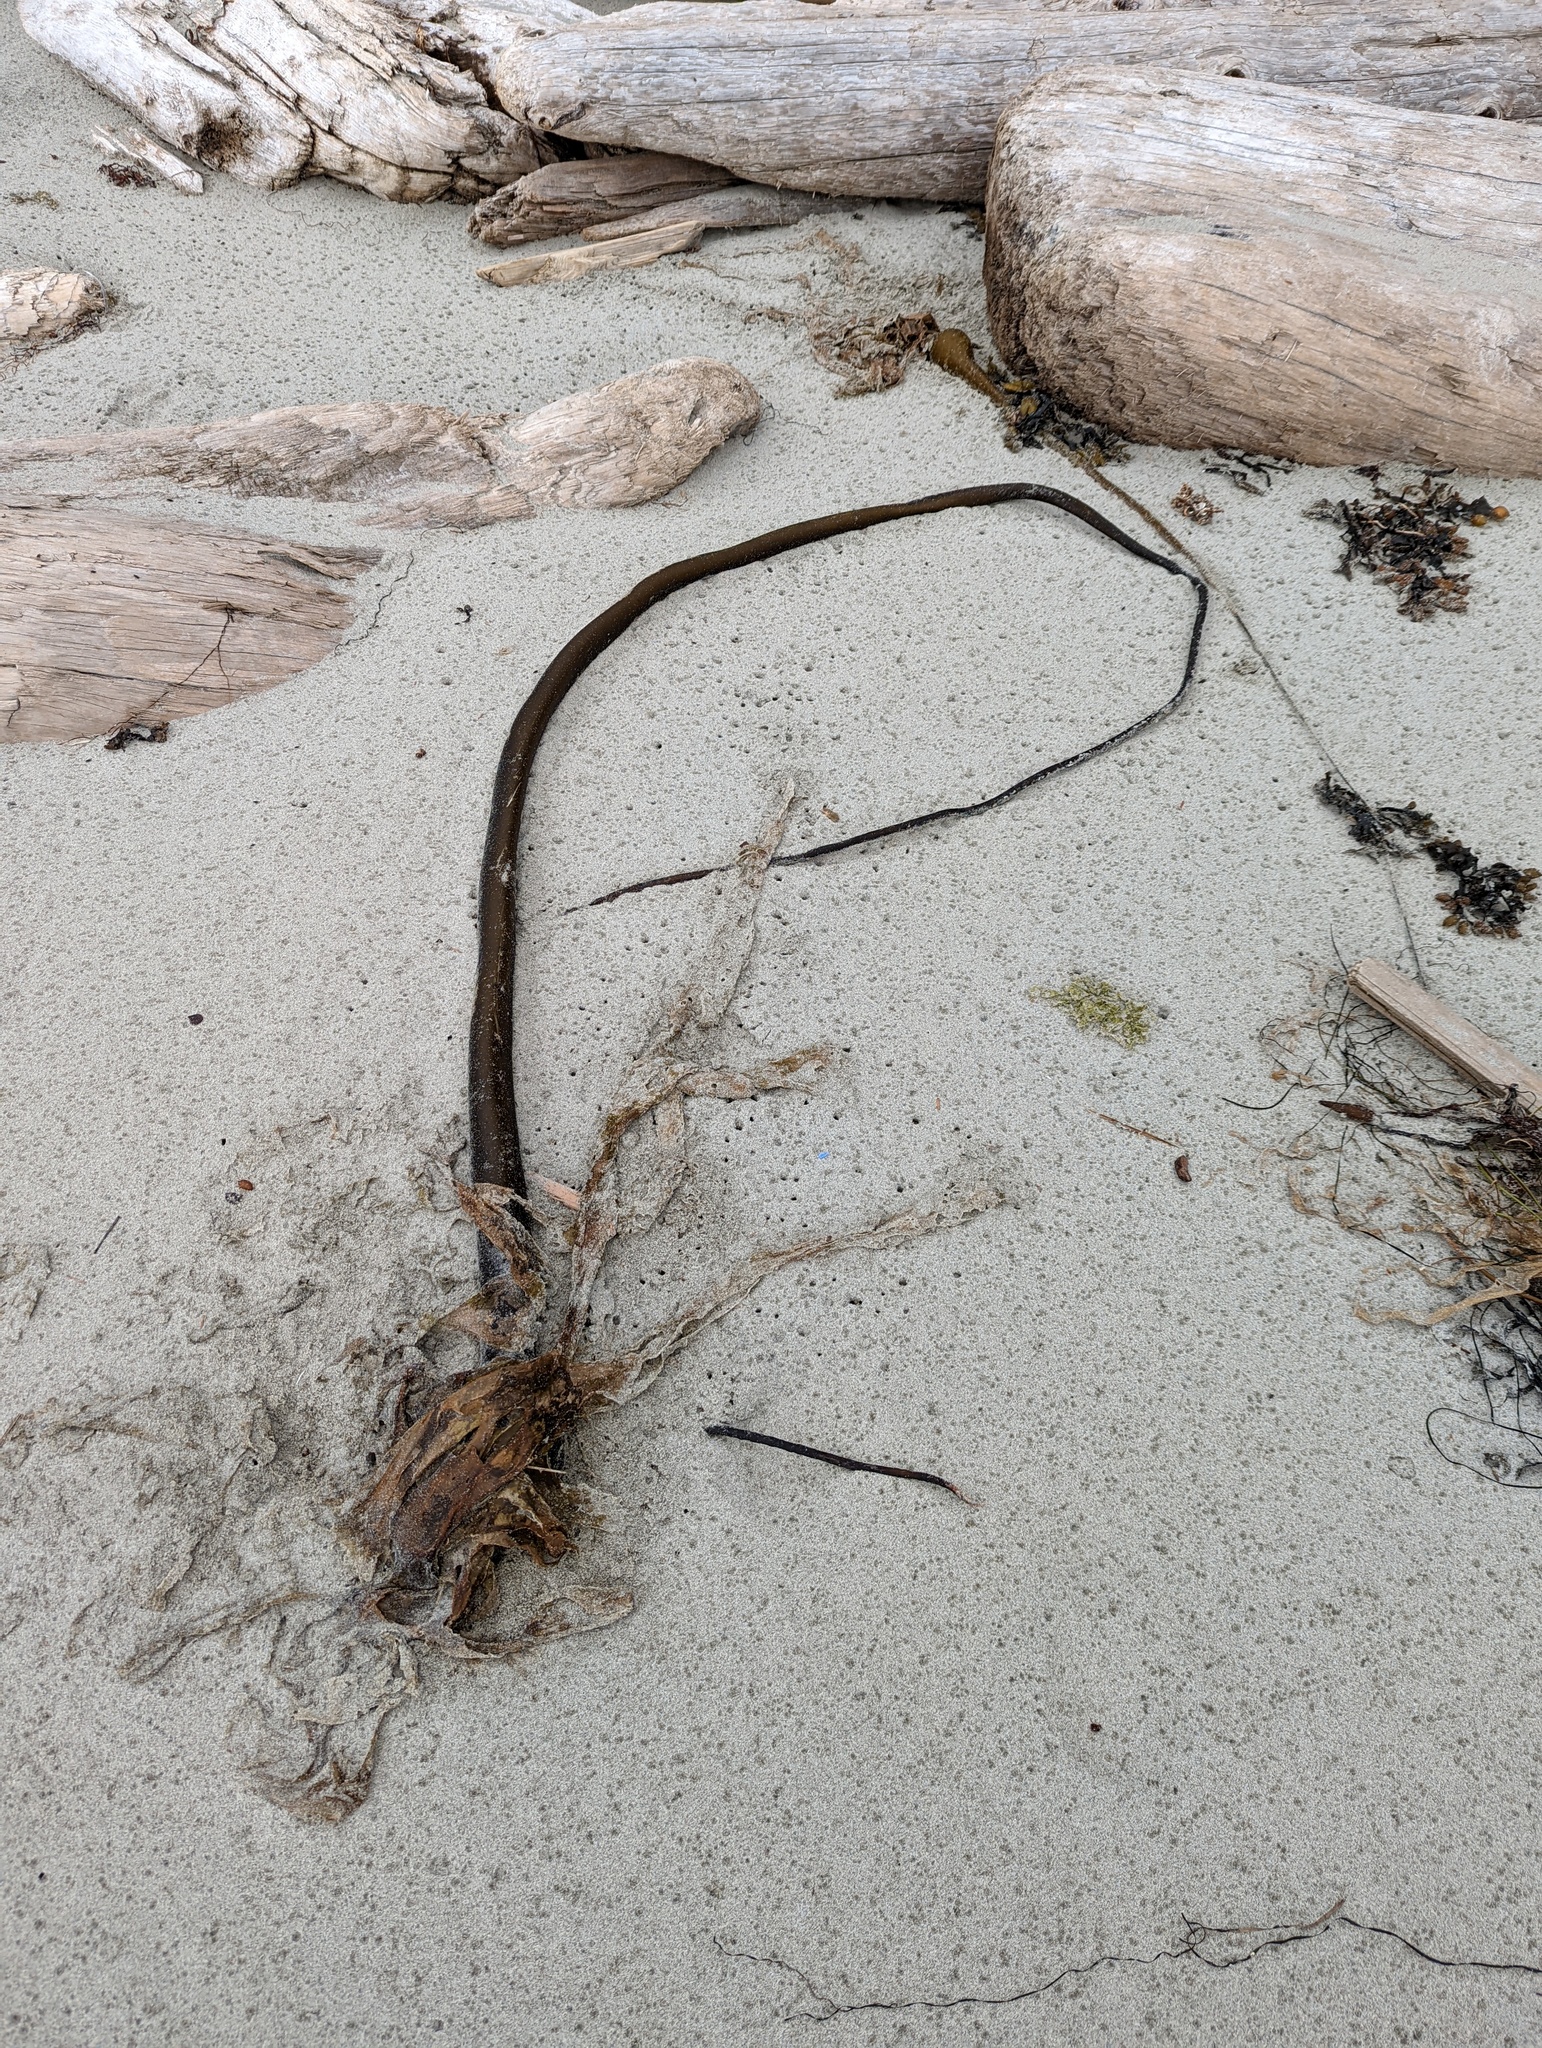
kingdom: Chromista
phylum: Ochrophyta
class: Phaeophyceae
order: Laminariales
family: Laminariaceae
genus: Nereocystis
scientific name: Nereocystis luetkeana
